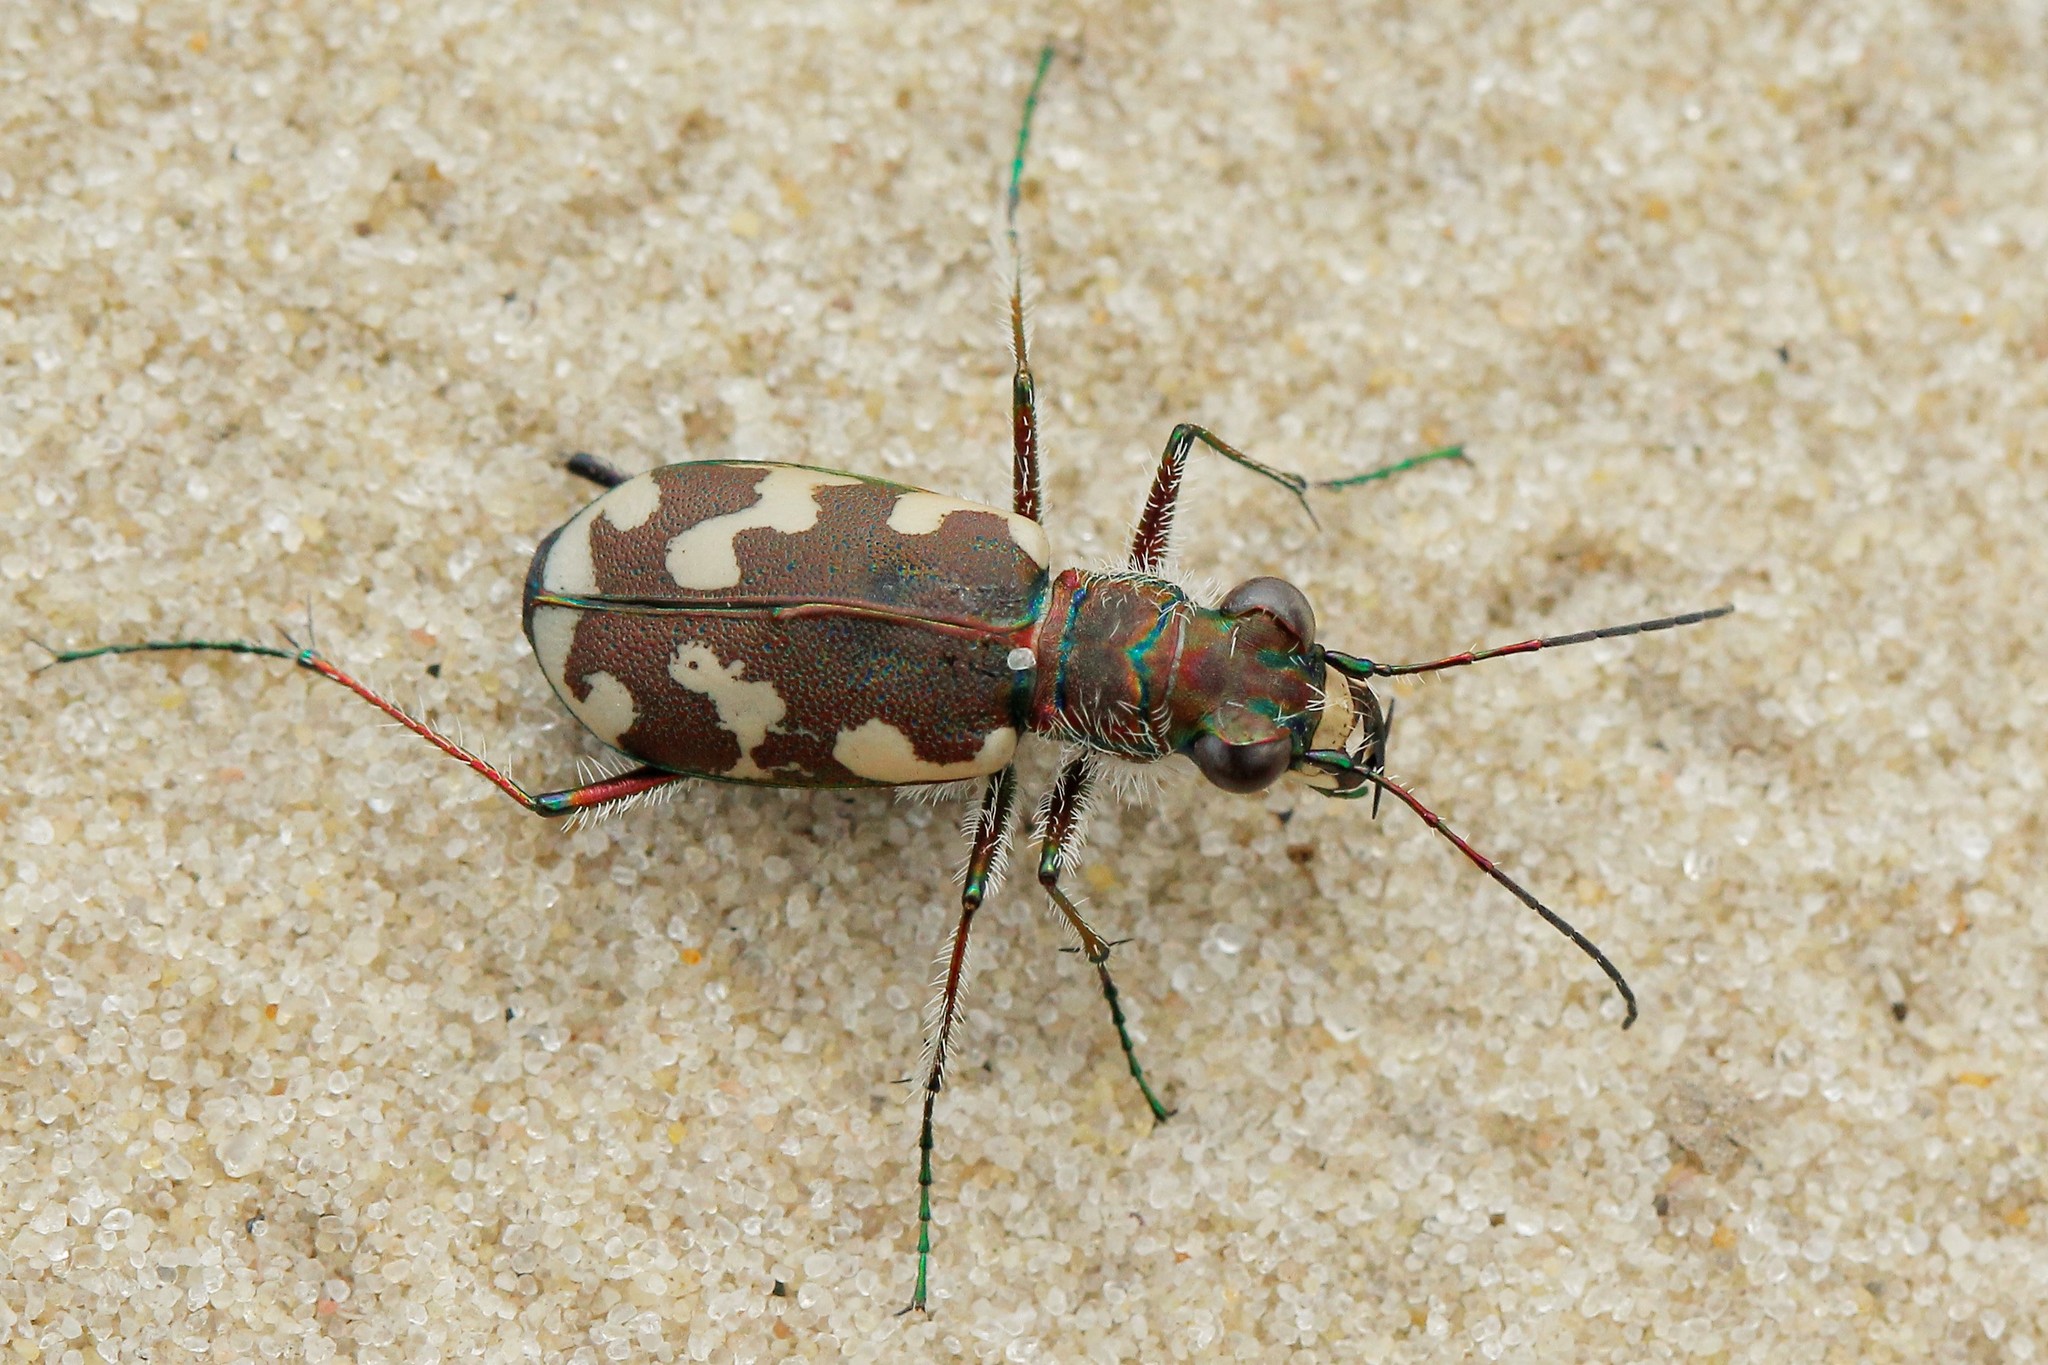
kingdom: Animalia
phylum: Arthropoda
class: Insecta
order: Coleoptera
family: Carabidae
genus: Cicindela
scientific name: Cicindela sahlbergii
